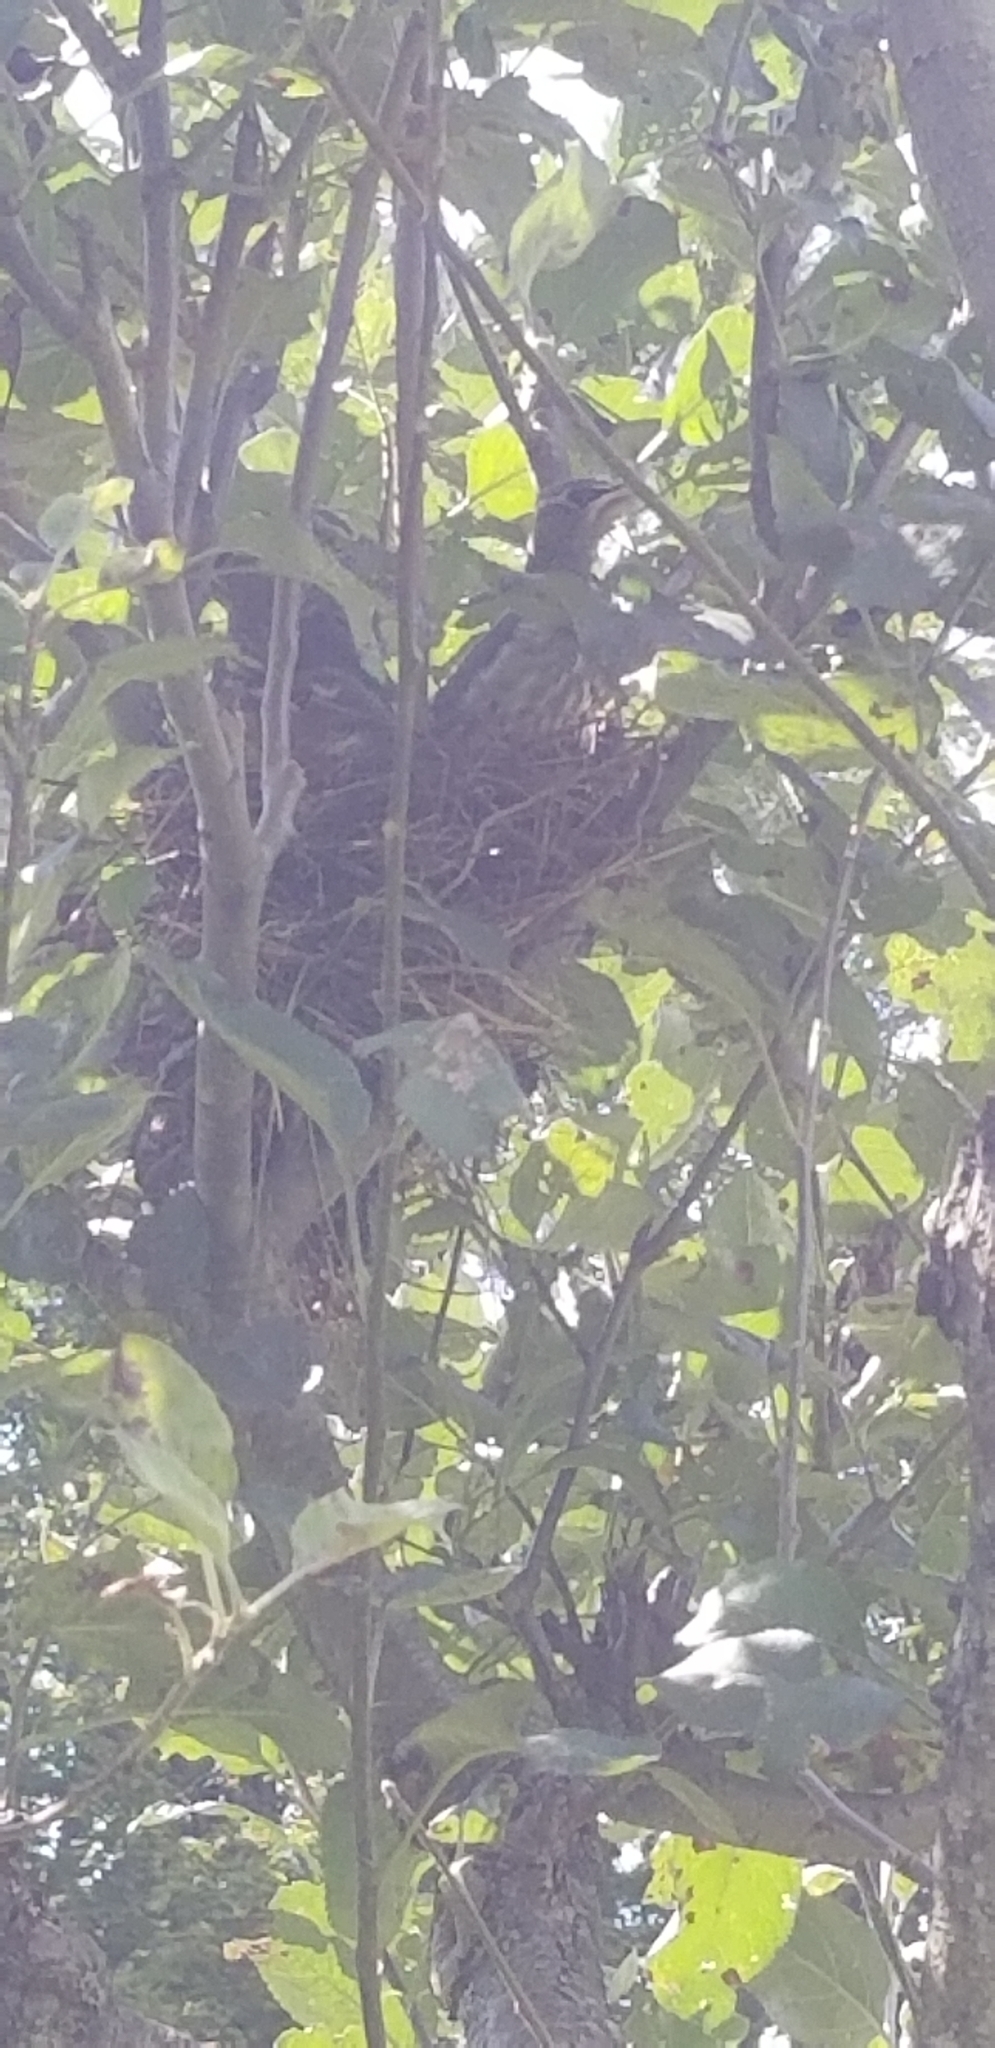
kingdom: Animalia
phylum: Chordata
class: Aves
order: Passeriformes
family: Bombycillidae
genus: Bombycilla
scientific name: Bombycilla cedrorum
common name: Cedar waxwing
